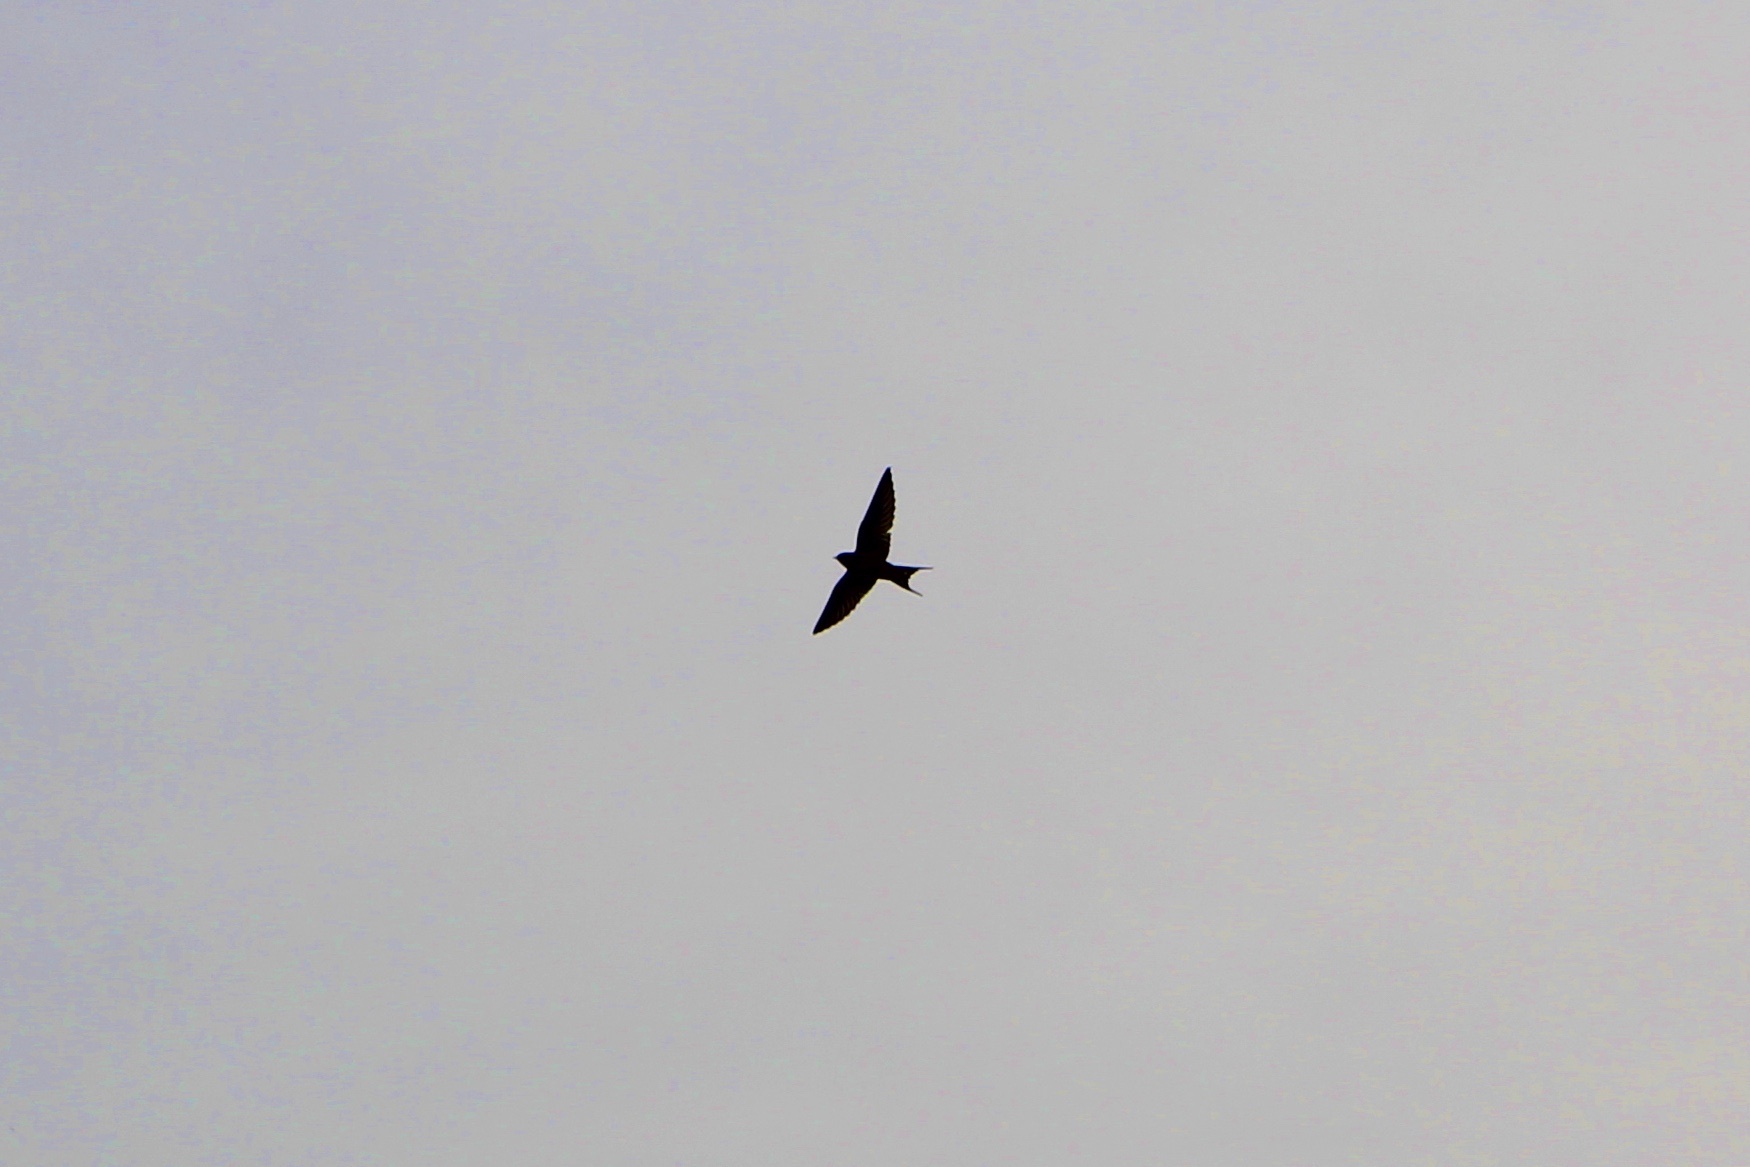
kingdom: Animalia
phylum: Chordata
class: Aves
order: Passeriformes
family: Hirundinidae
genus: Hirundo
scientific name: Hirundo rustica
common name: Barn swallow
